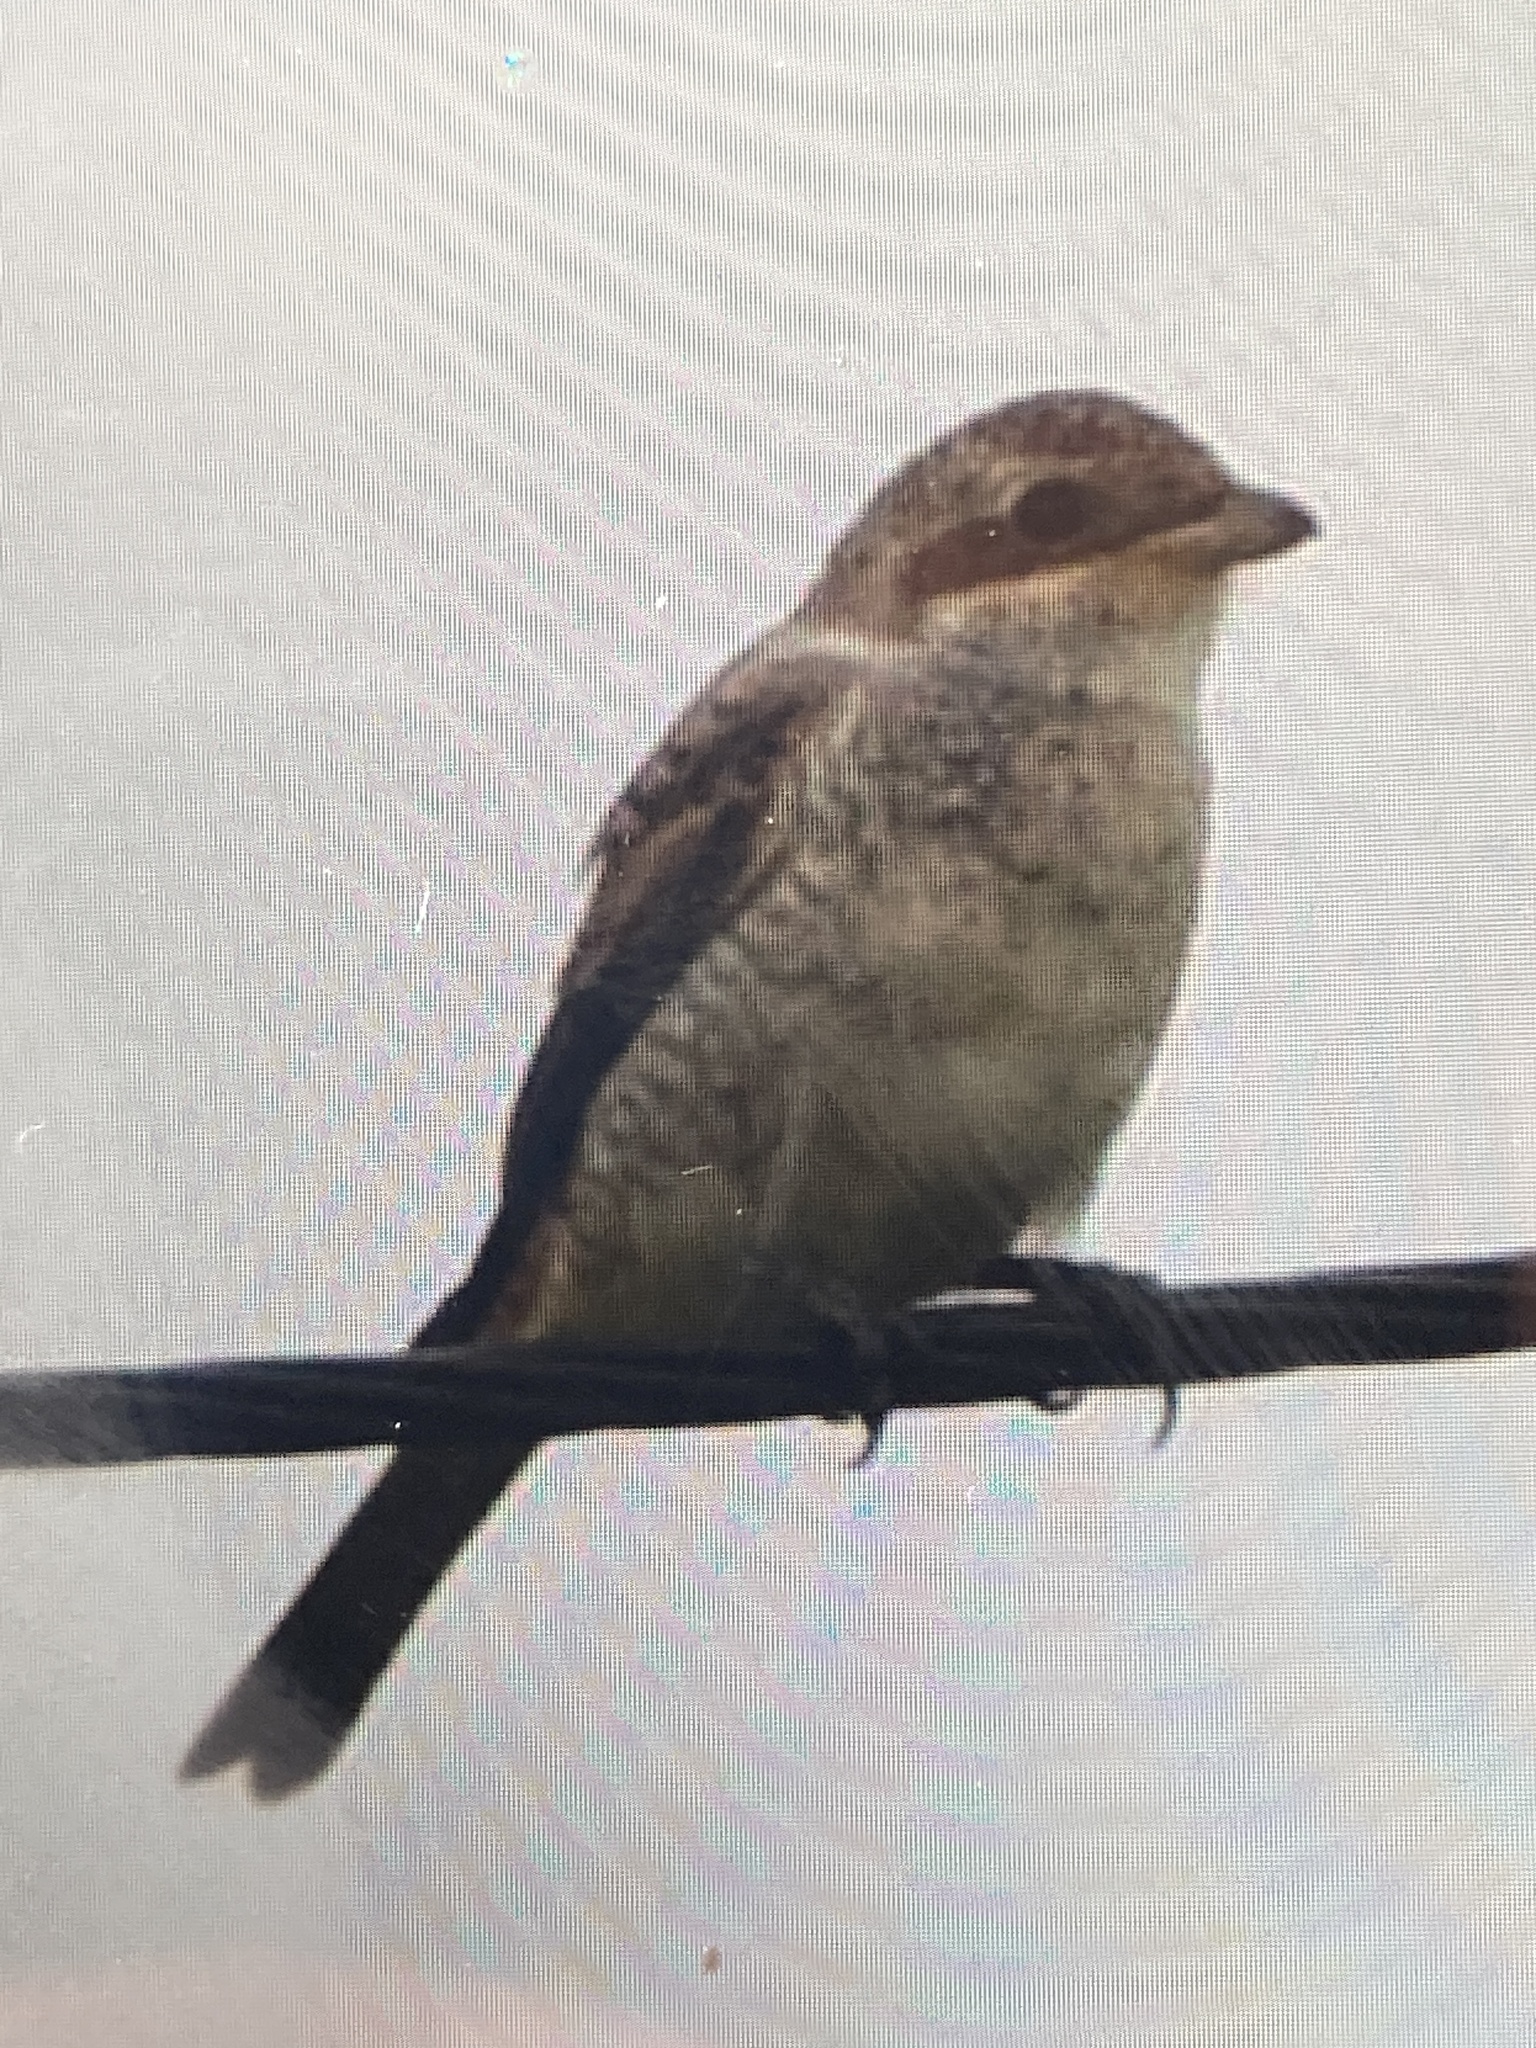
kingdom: Animalia
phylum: Chordata
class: Aves
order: Passeriformes
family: Laniidae
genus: Lanius
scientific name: Lanius collurio
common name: Red-backed shrike
